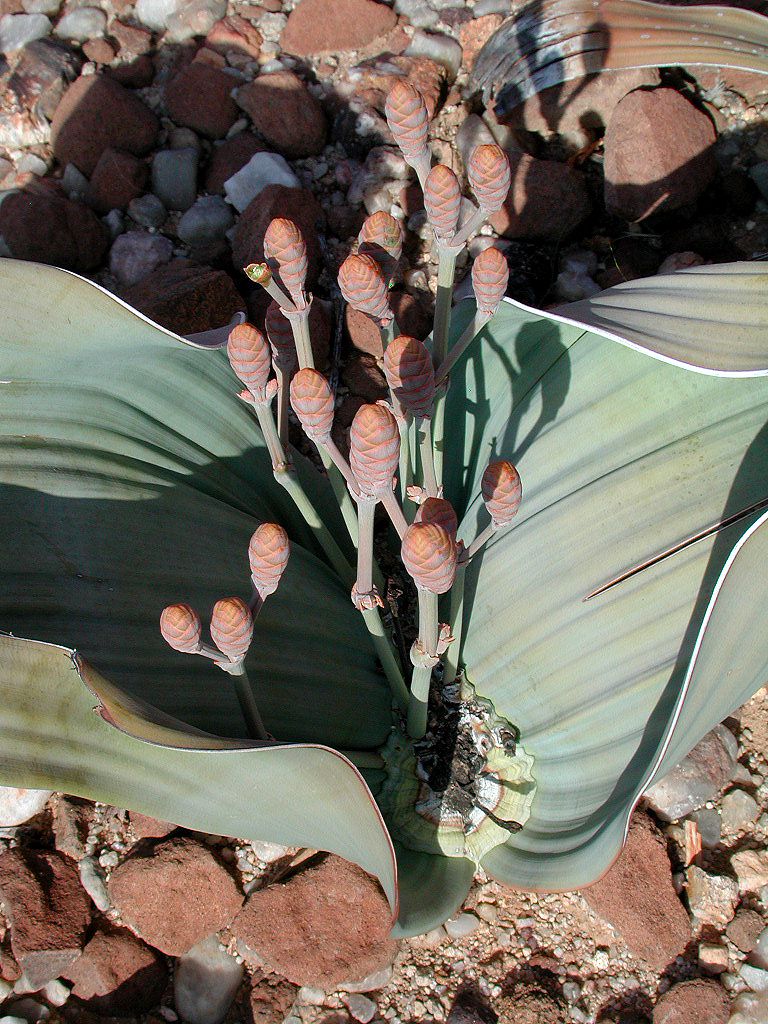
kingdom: Plantae
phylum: Tracheophyta
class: Gnetopsida
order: Welwitschiales
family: Welwitschiaceae
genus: Welwitschia
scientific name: Welwitschia mirabilis
